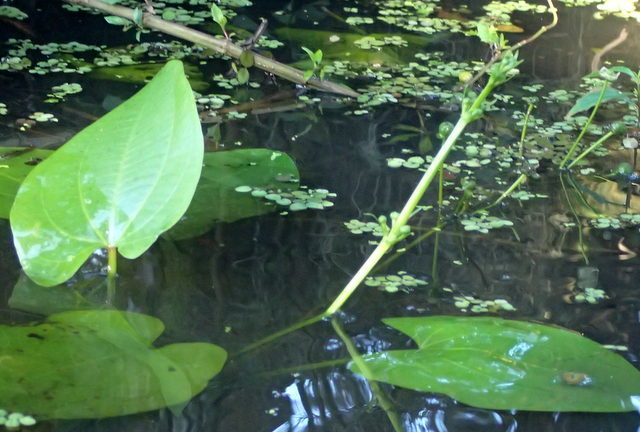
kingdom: Plantae
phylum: Tracheophyta
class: Liliopsida
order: Alismatales
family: Alismataceae
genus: Aquarius
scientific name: Aquarius cordifolius
